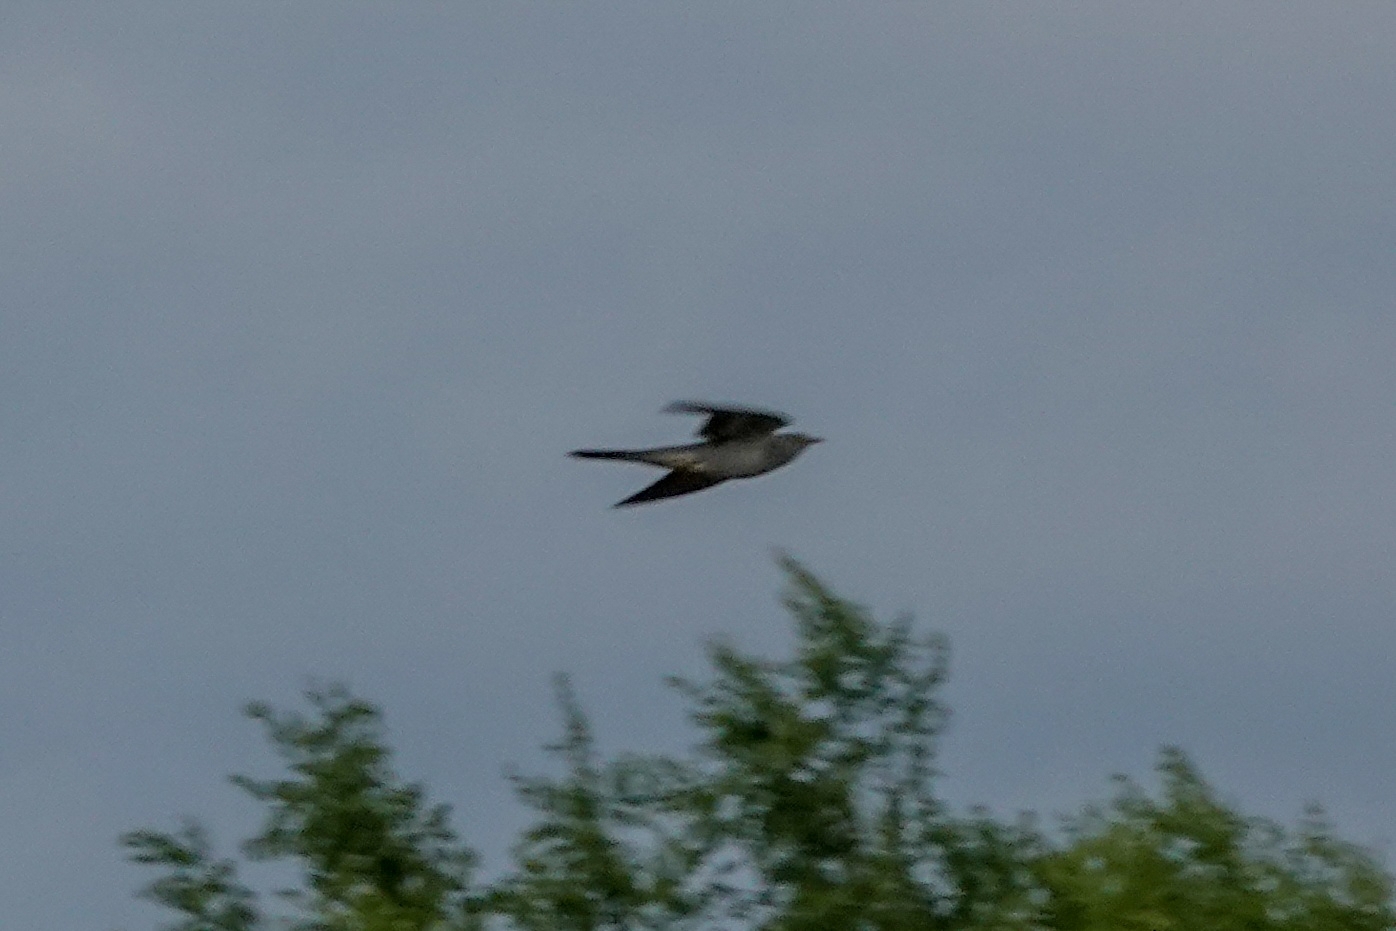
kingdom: Animalia
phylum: Chordata
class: Aves
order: Cuculiformes
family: Cuculidae
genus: Cuculus
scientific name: Cuculus canorus
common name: Common cuckoo
